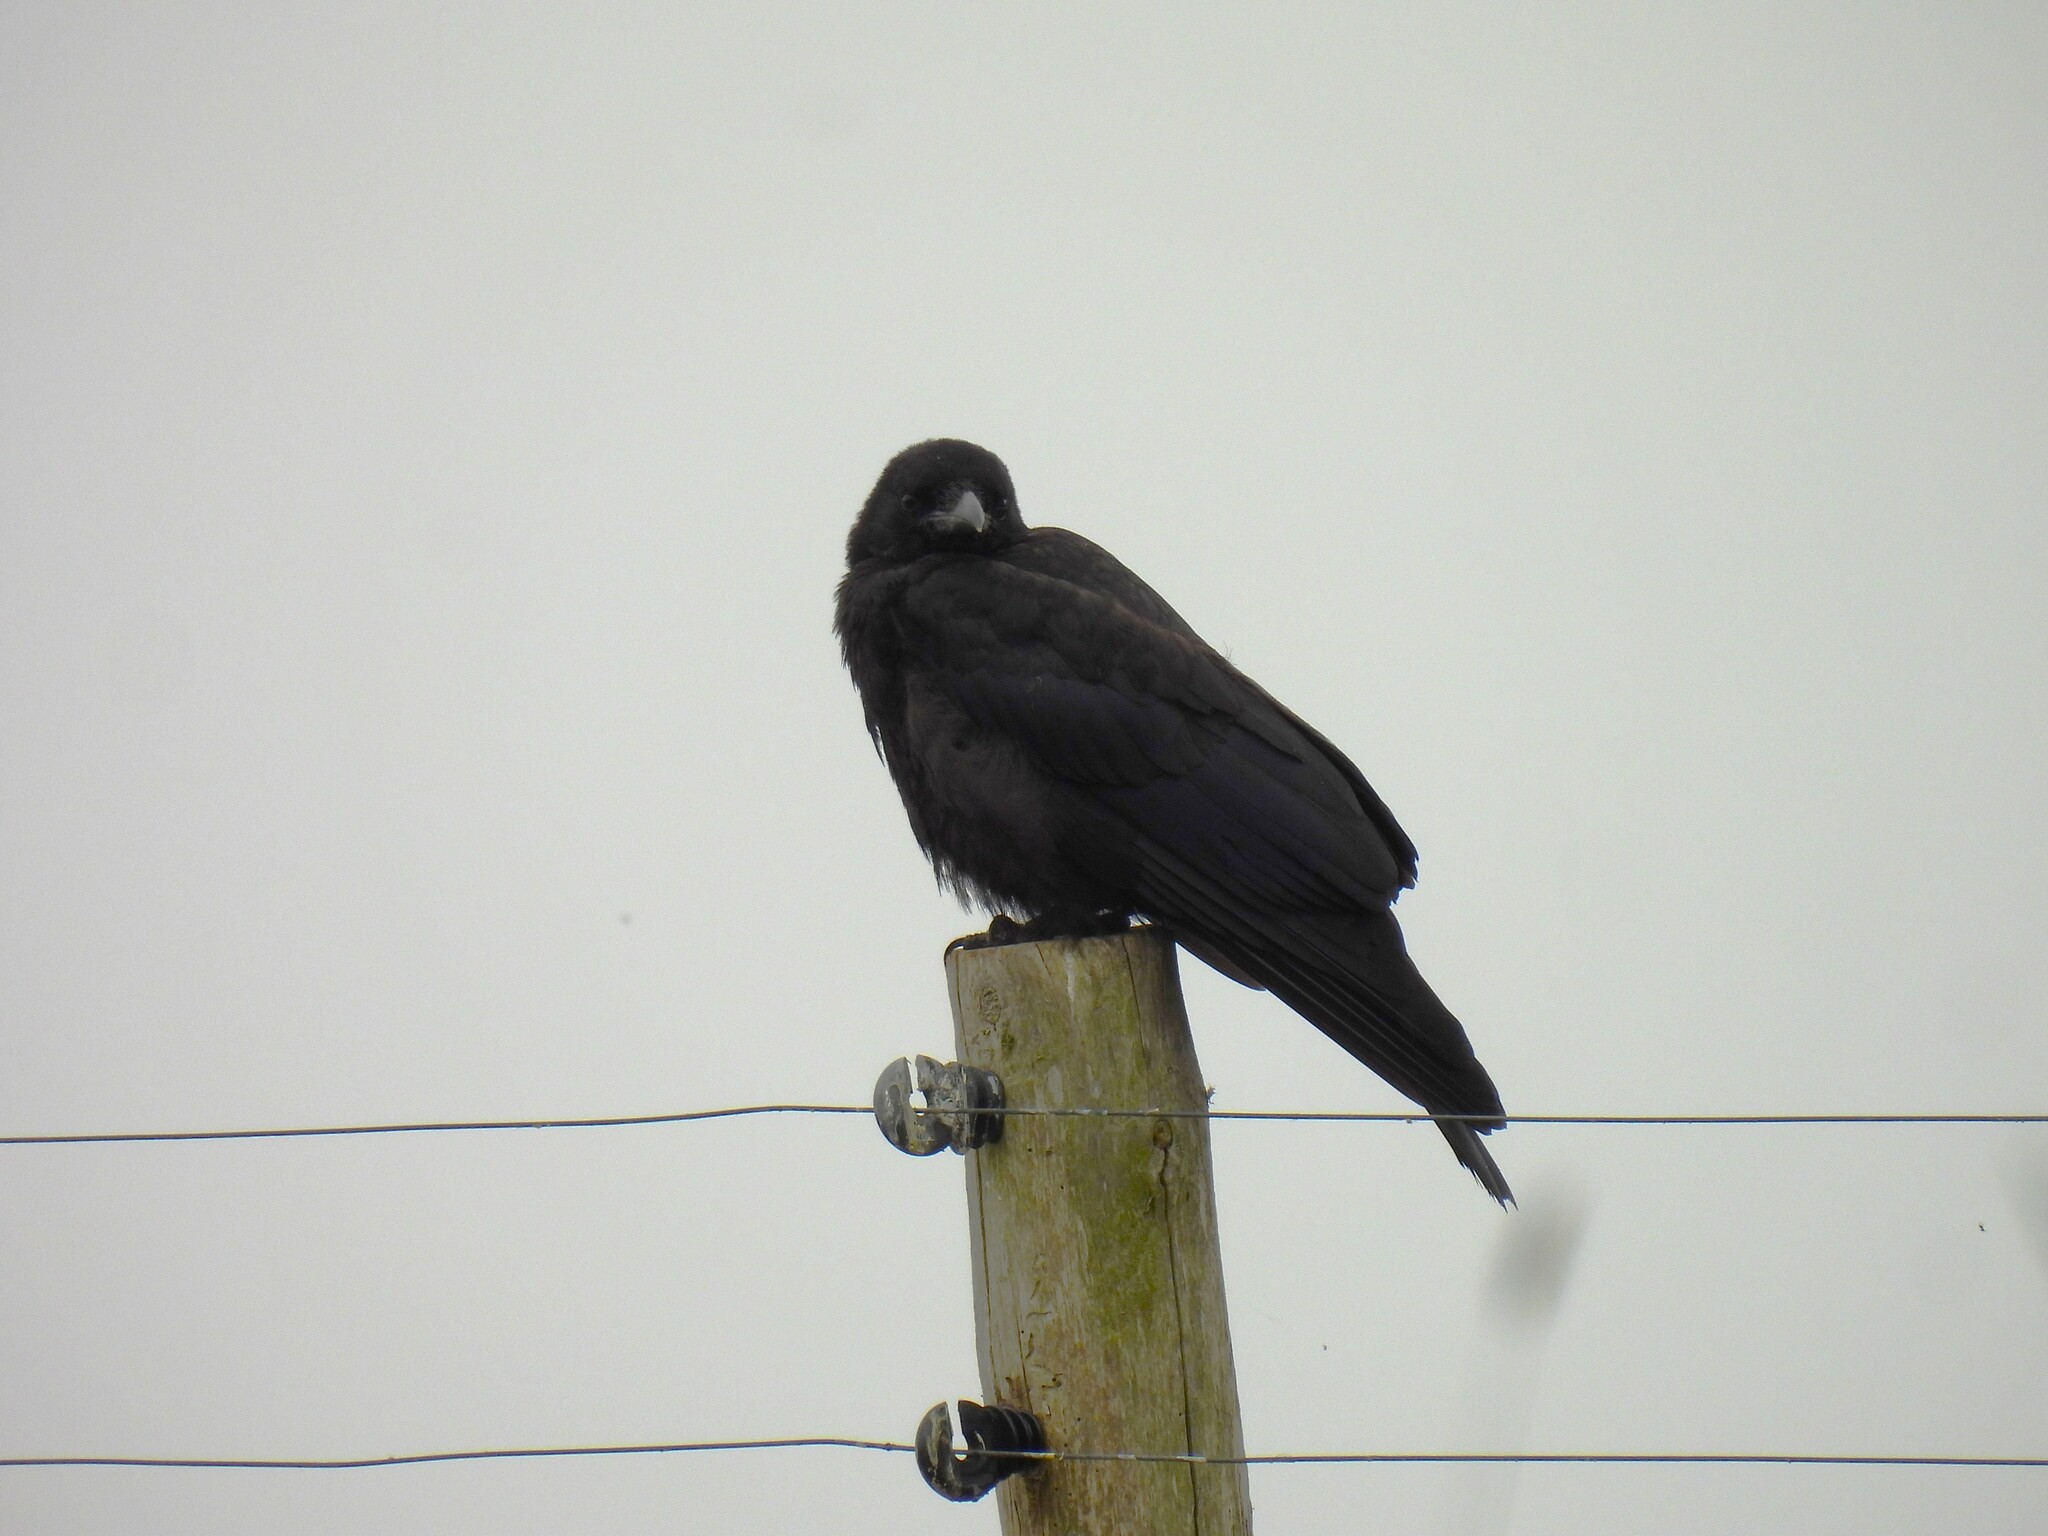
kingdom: Animalia
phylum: Chordata
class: Aves
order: Passeriformes
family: Corvidae
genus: Corvus
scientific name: Corvus corone
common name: Carrion crow
